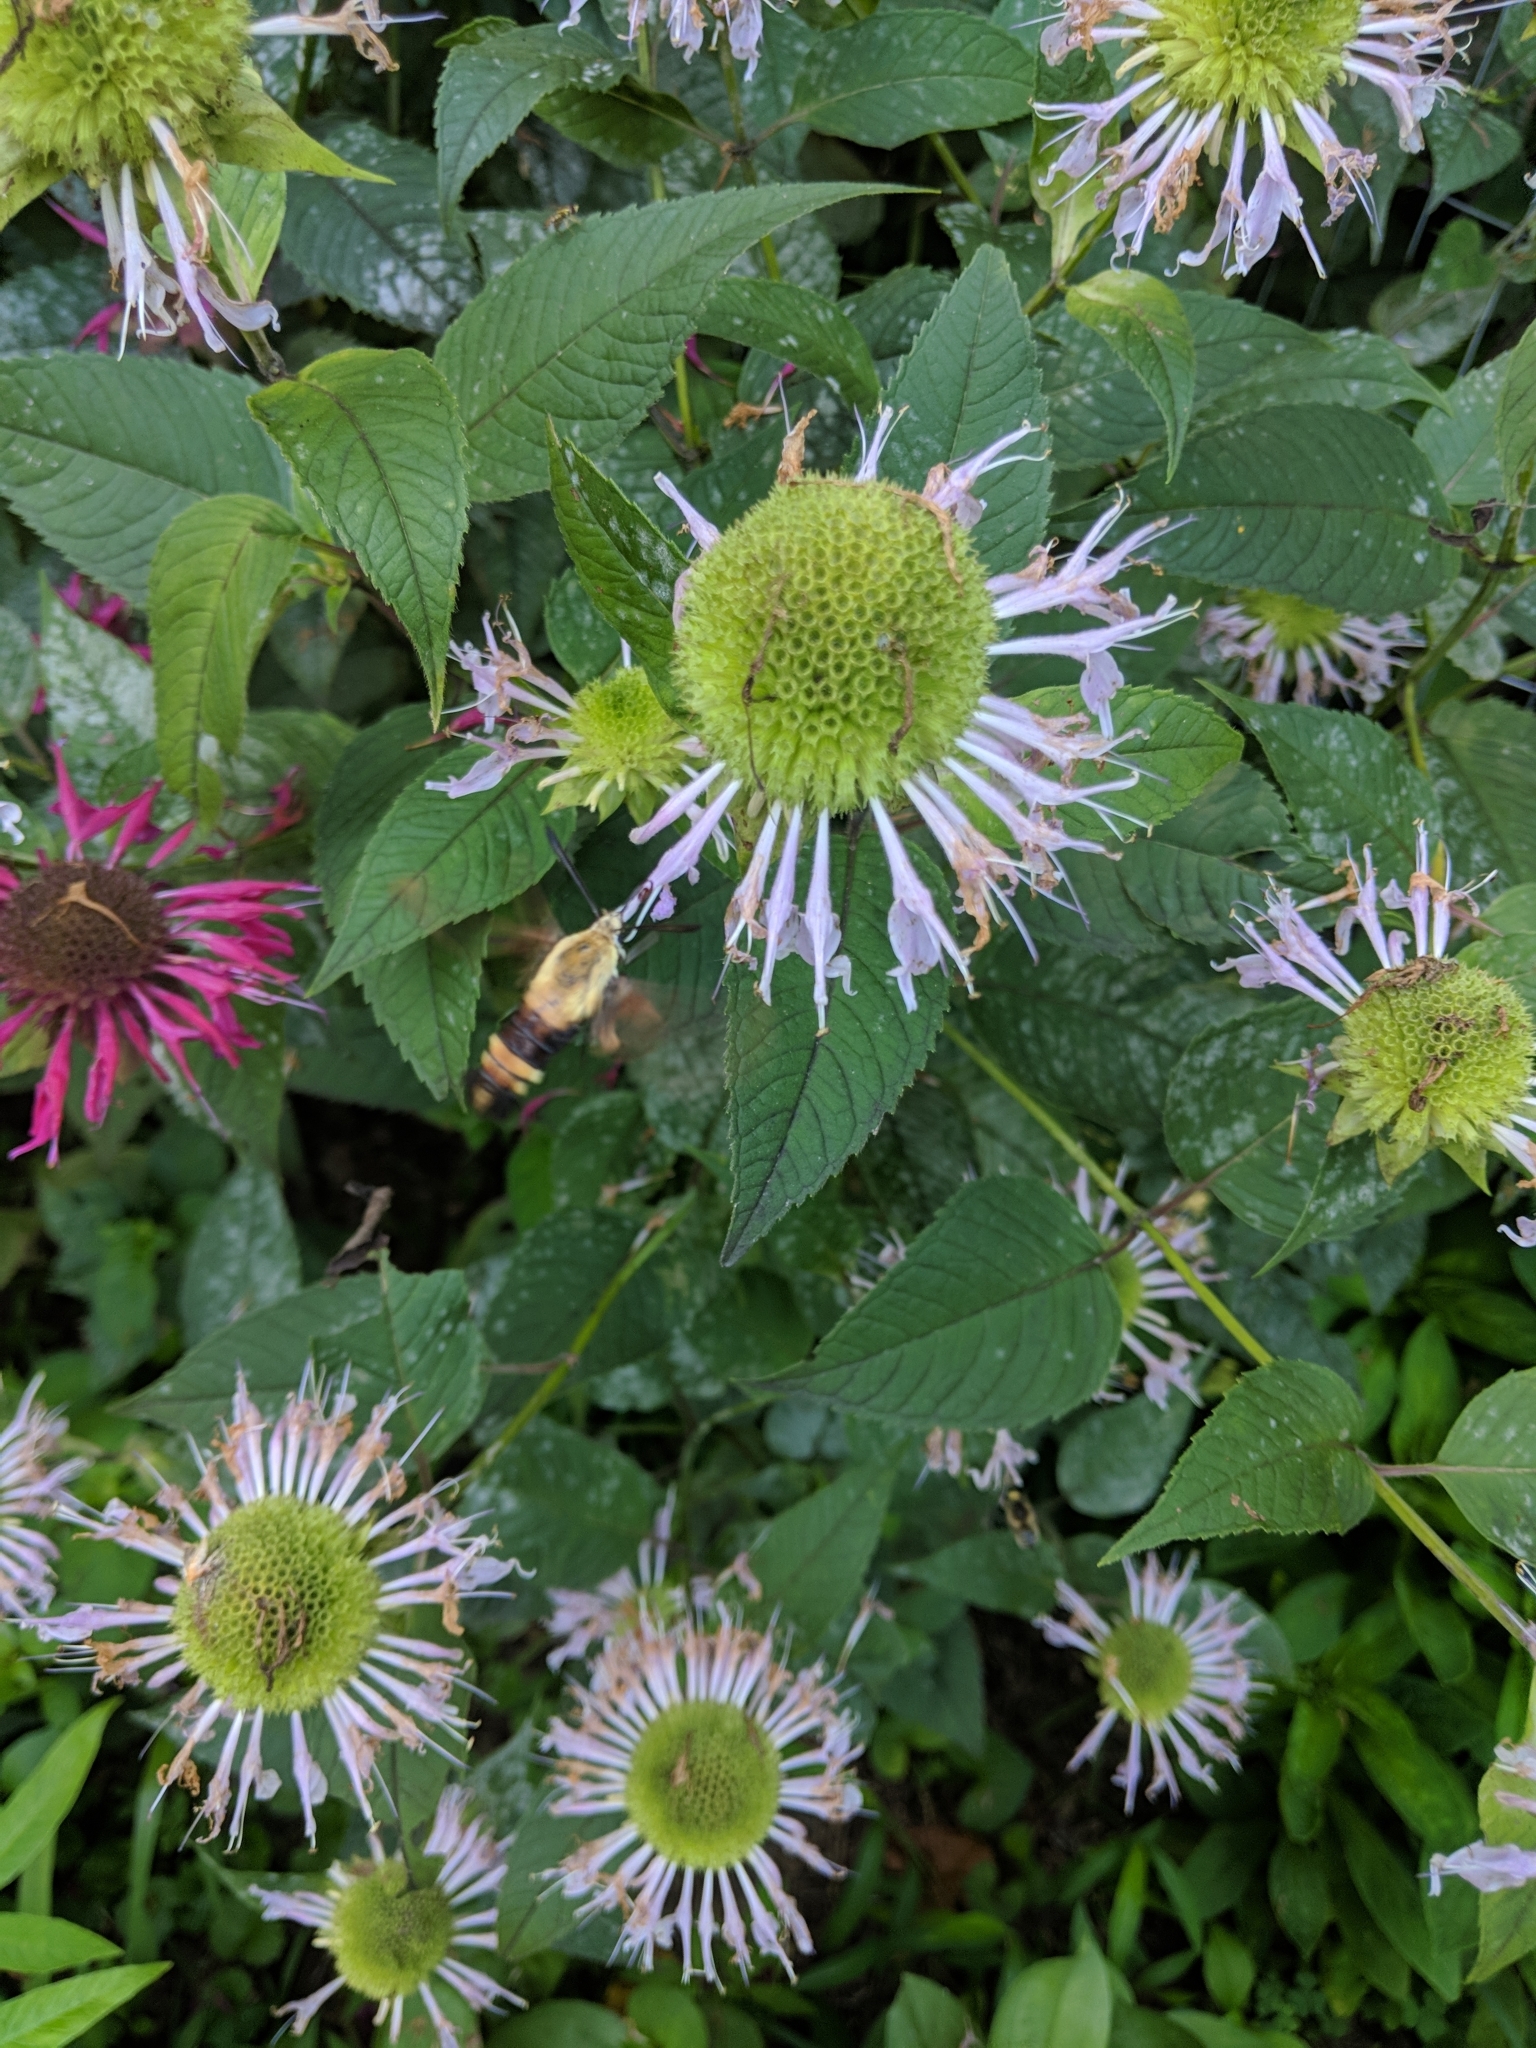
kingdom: Animalia
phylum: Arthropoda
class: Insecta
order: Lepidoptera
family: Sphingidae
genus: Hemaris
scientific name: Hemaris diffinis
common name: Bumblebee moth
